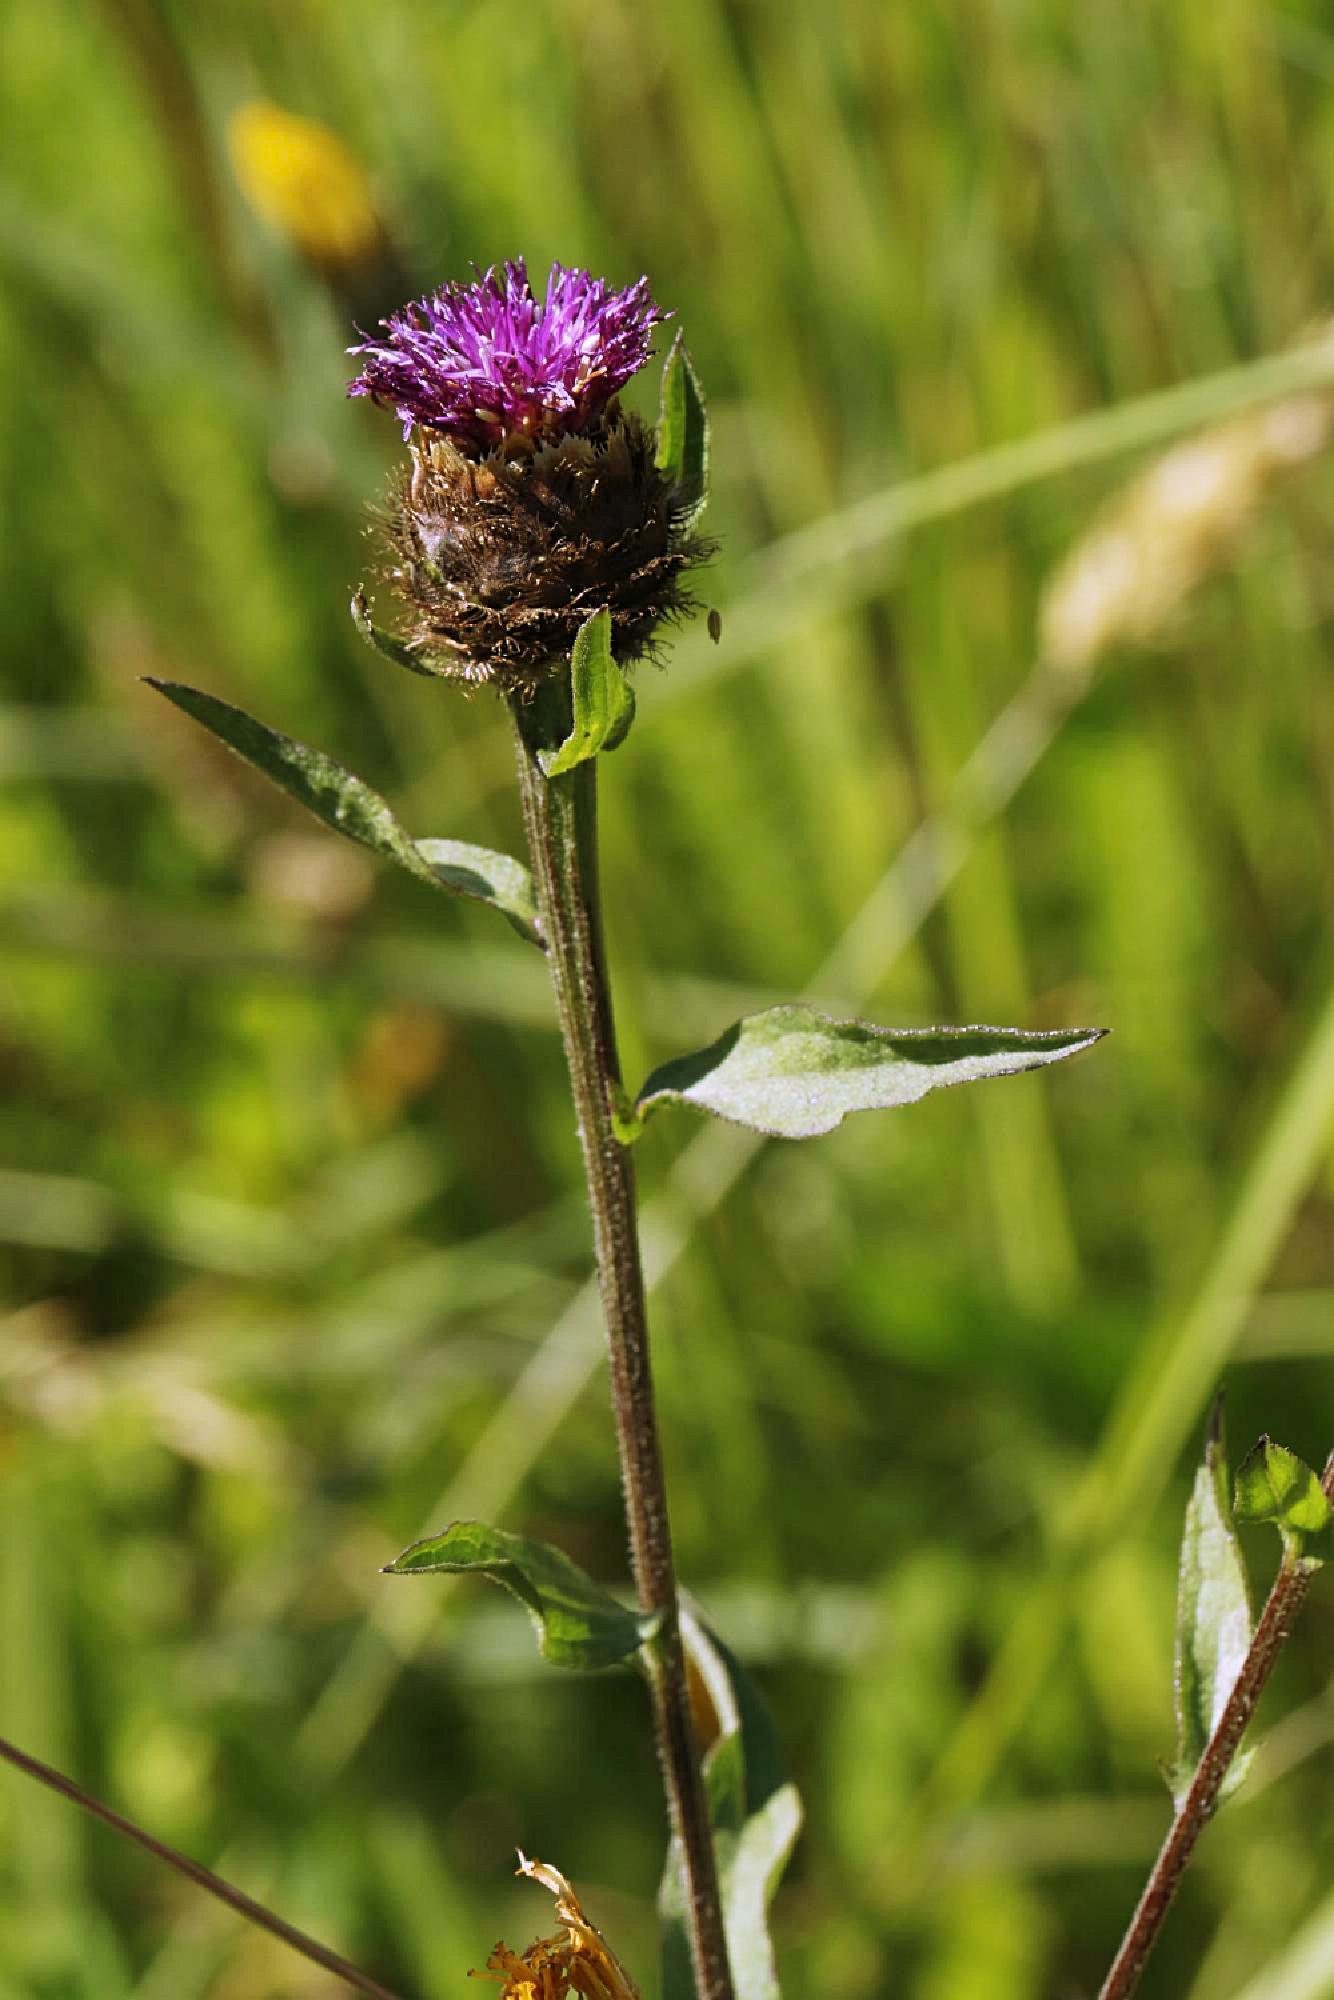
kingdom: Plantae
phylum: Tracheophyta
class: Magnoliopsida
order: Asterales
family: Asteraceae
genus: Centaurea
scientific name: Centaurea nigra
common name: Lesser knapweed
